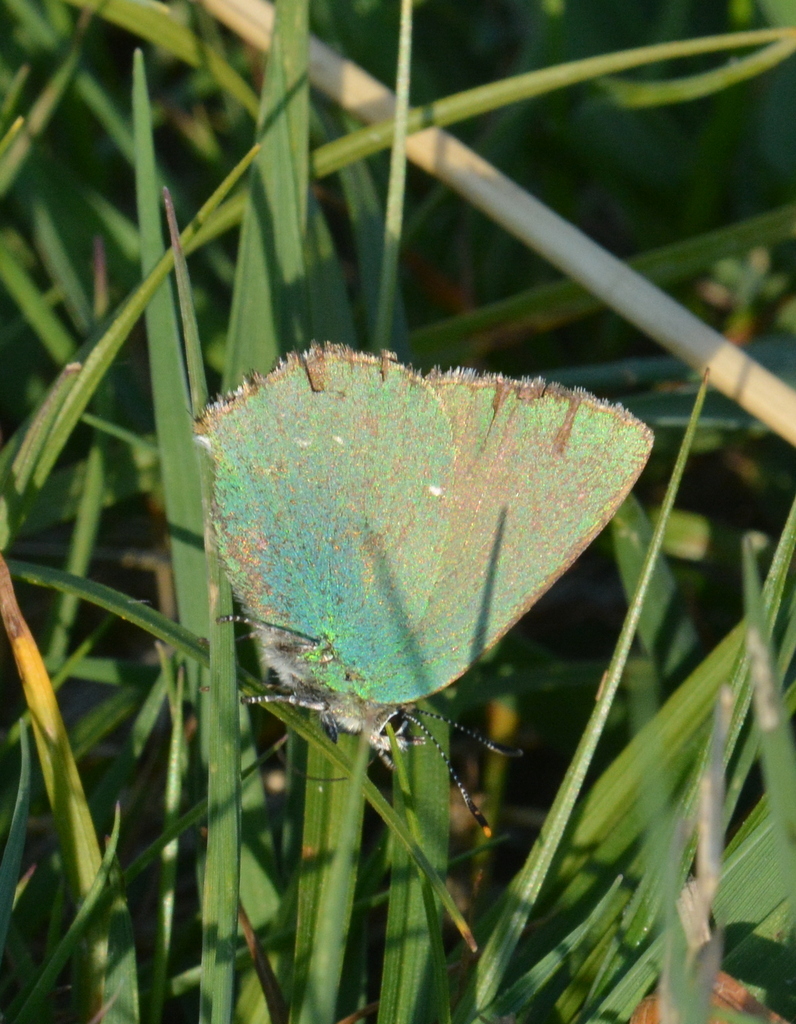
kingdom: Animalia
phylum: Arthropoda
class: Insecta
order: Lepidoptera
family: Lycaenidae
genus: Callophrys
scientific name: Callophrys rubi
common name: Green hairstreak
